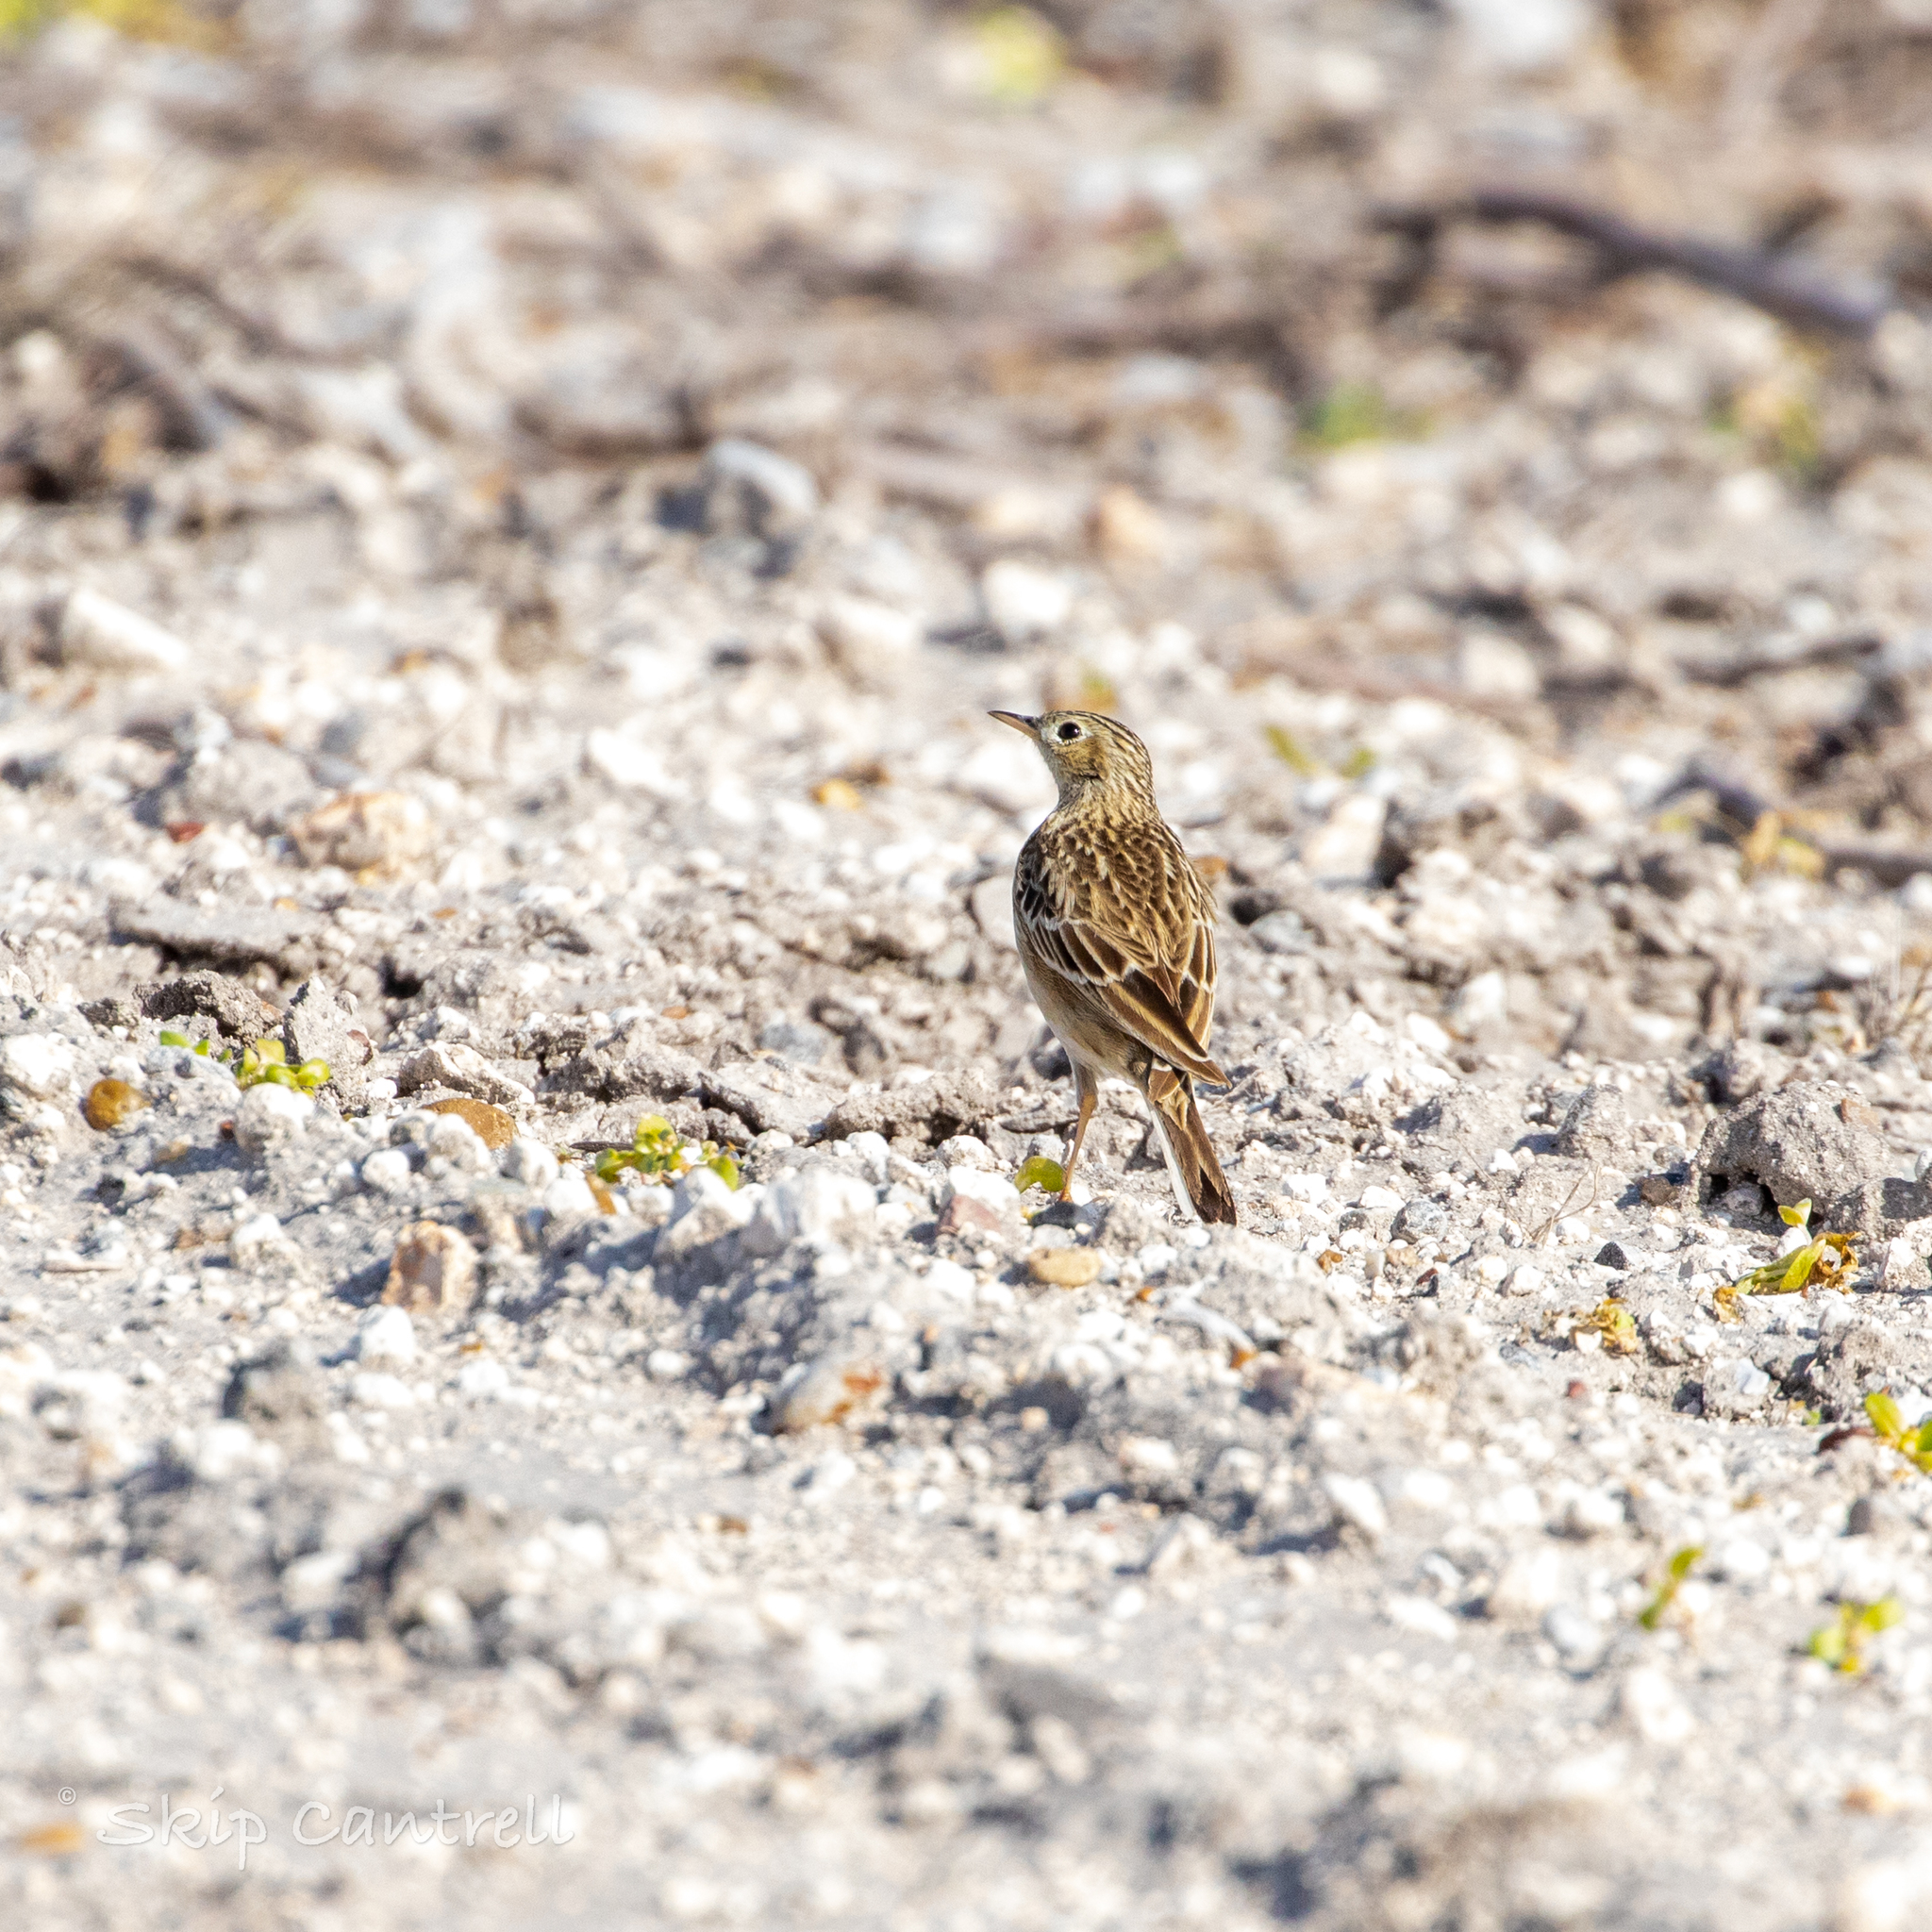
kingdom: Animalia
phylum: Chordata
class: Aves
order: Passeriformes
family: Motacillidae
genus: Anthus
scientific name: Anthus spragueii
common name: Sprague's pipit
